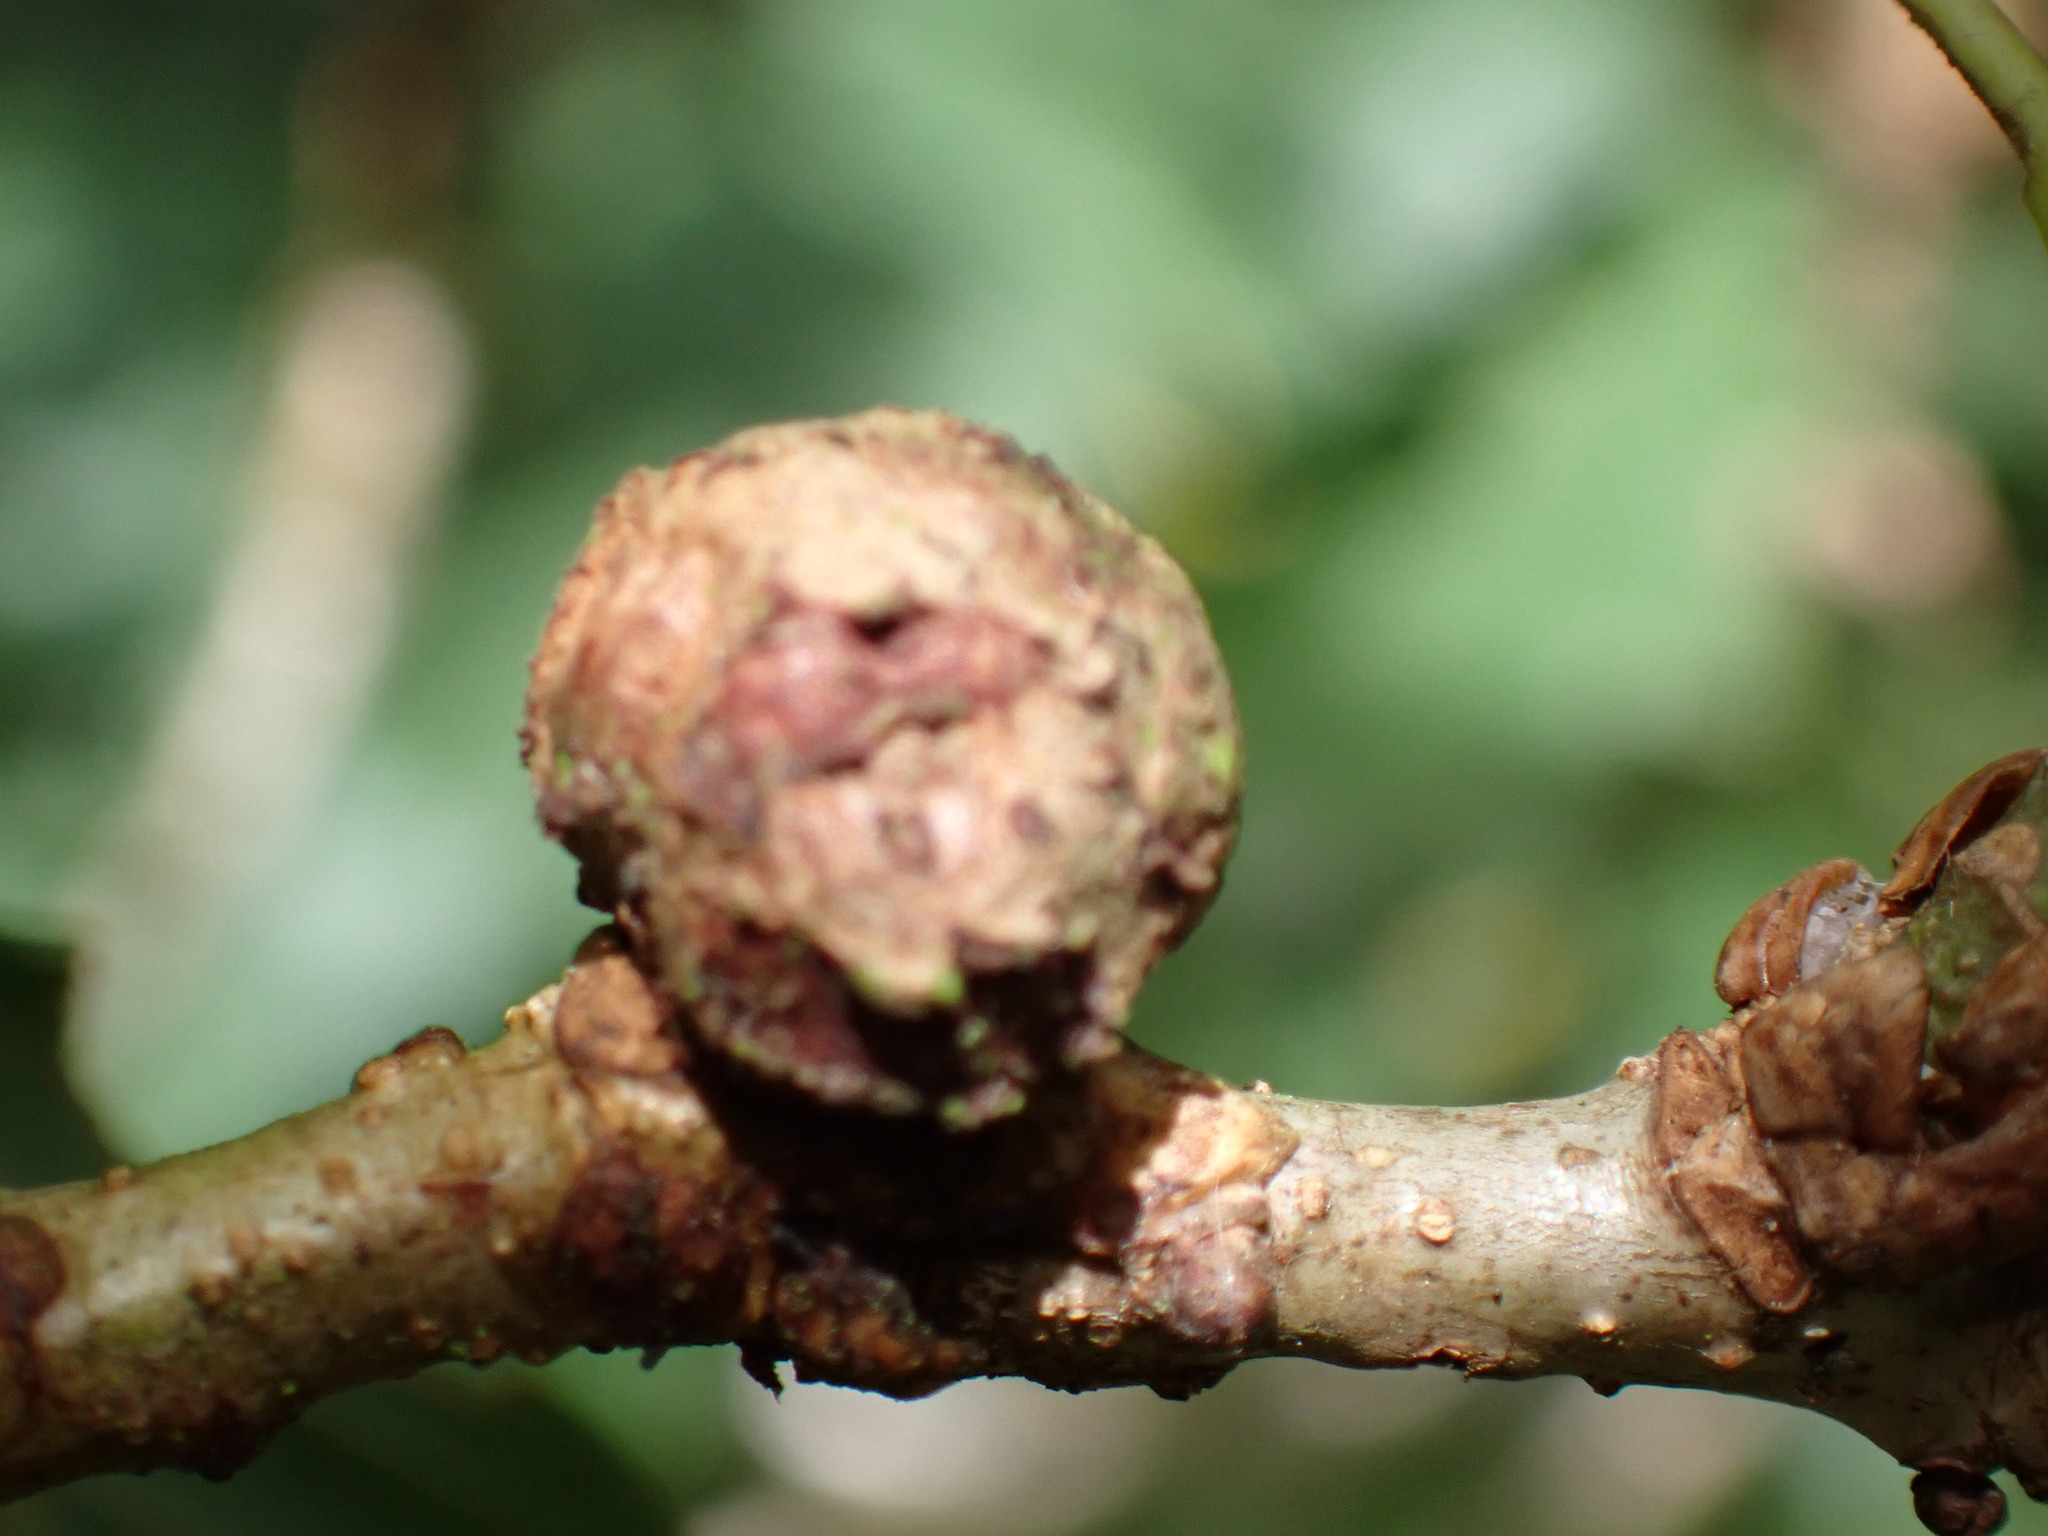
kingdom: Animalia
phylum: Arthropoda
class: Insecta
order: Hymenoptera
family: Cynipidae
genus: Andricus
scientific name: Andricus lignicolus
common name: Cola-nut gall
